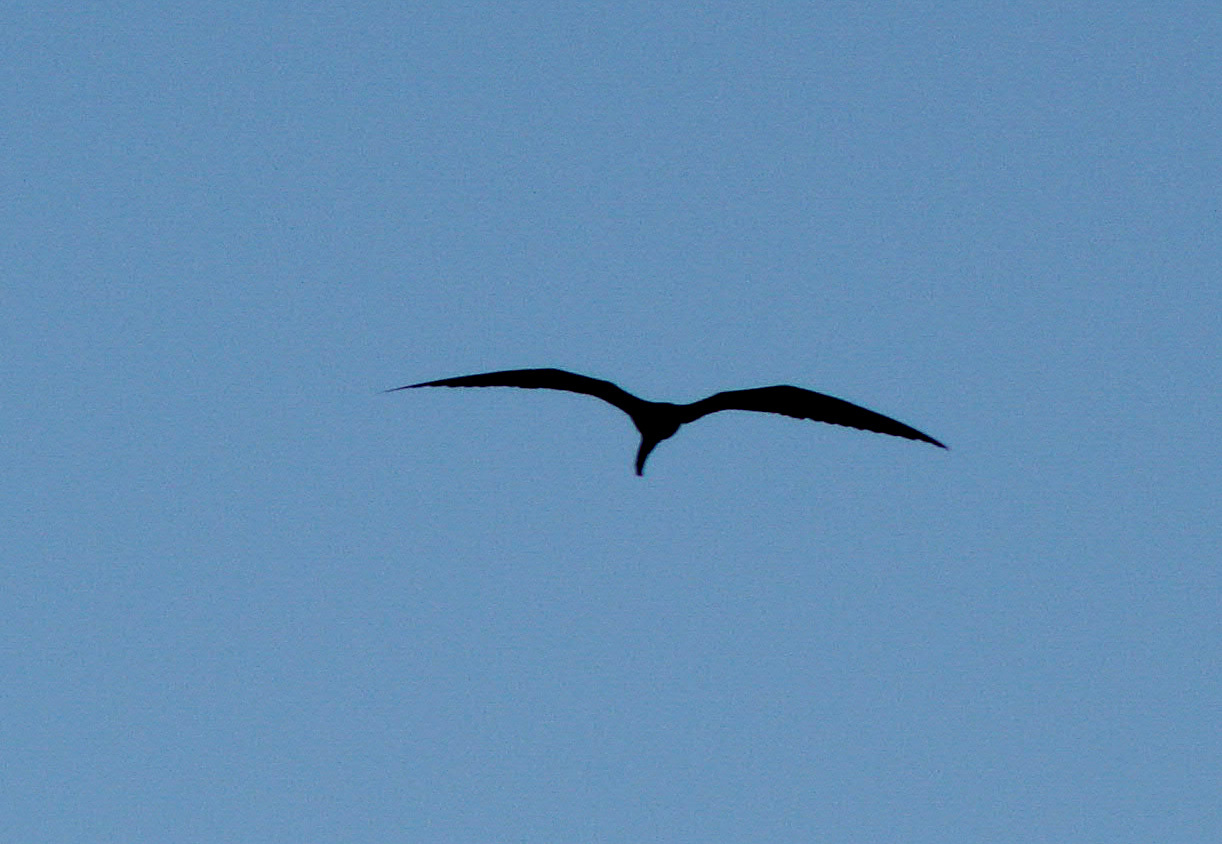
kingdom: Animalia
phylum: Chordata
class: Aves
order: Suliformes
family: Fregatidae
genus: Fregata
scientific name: Fregata magnificens
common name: Magnificent frigatebird
